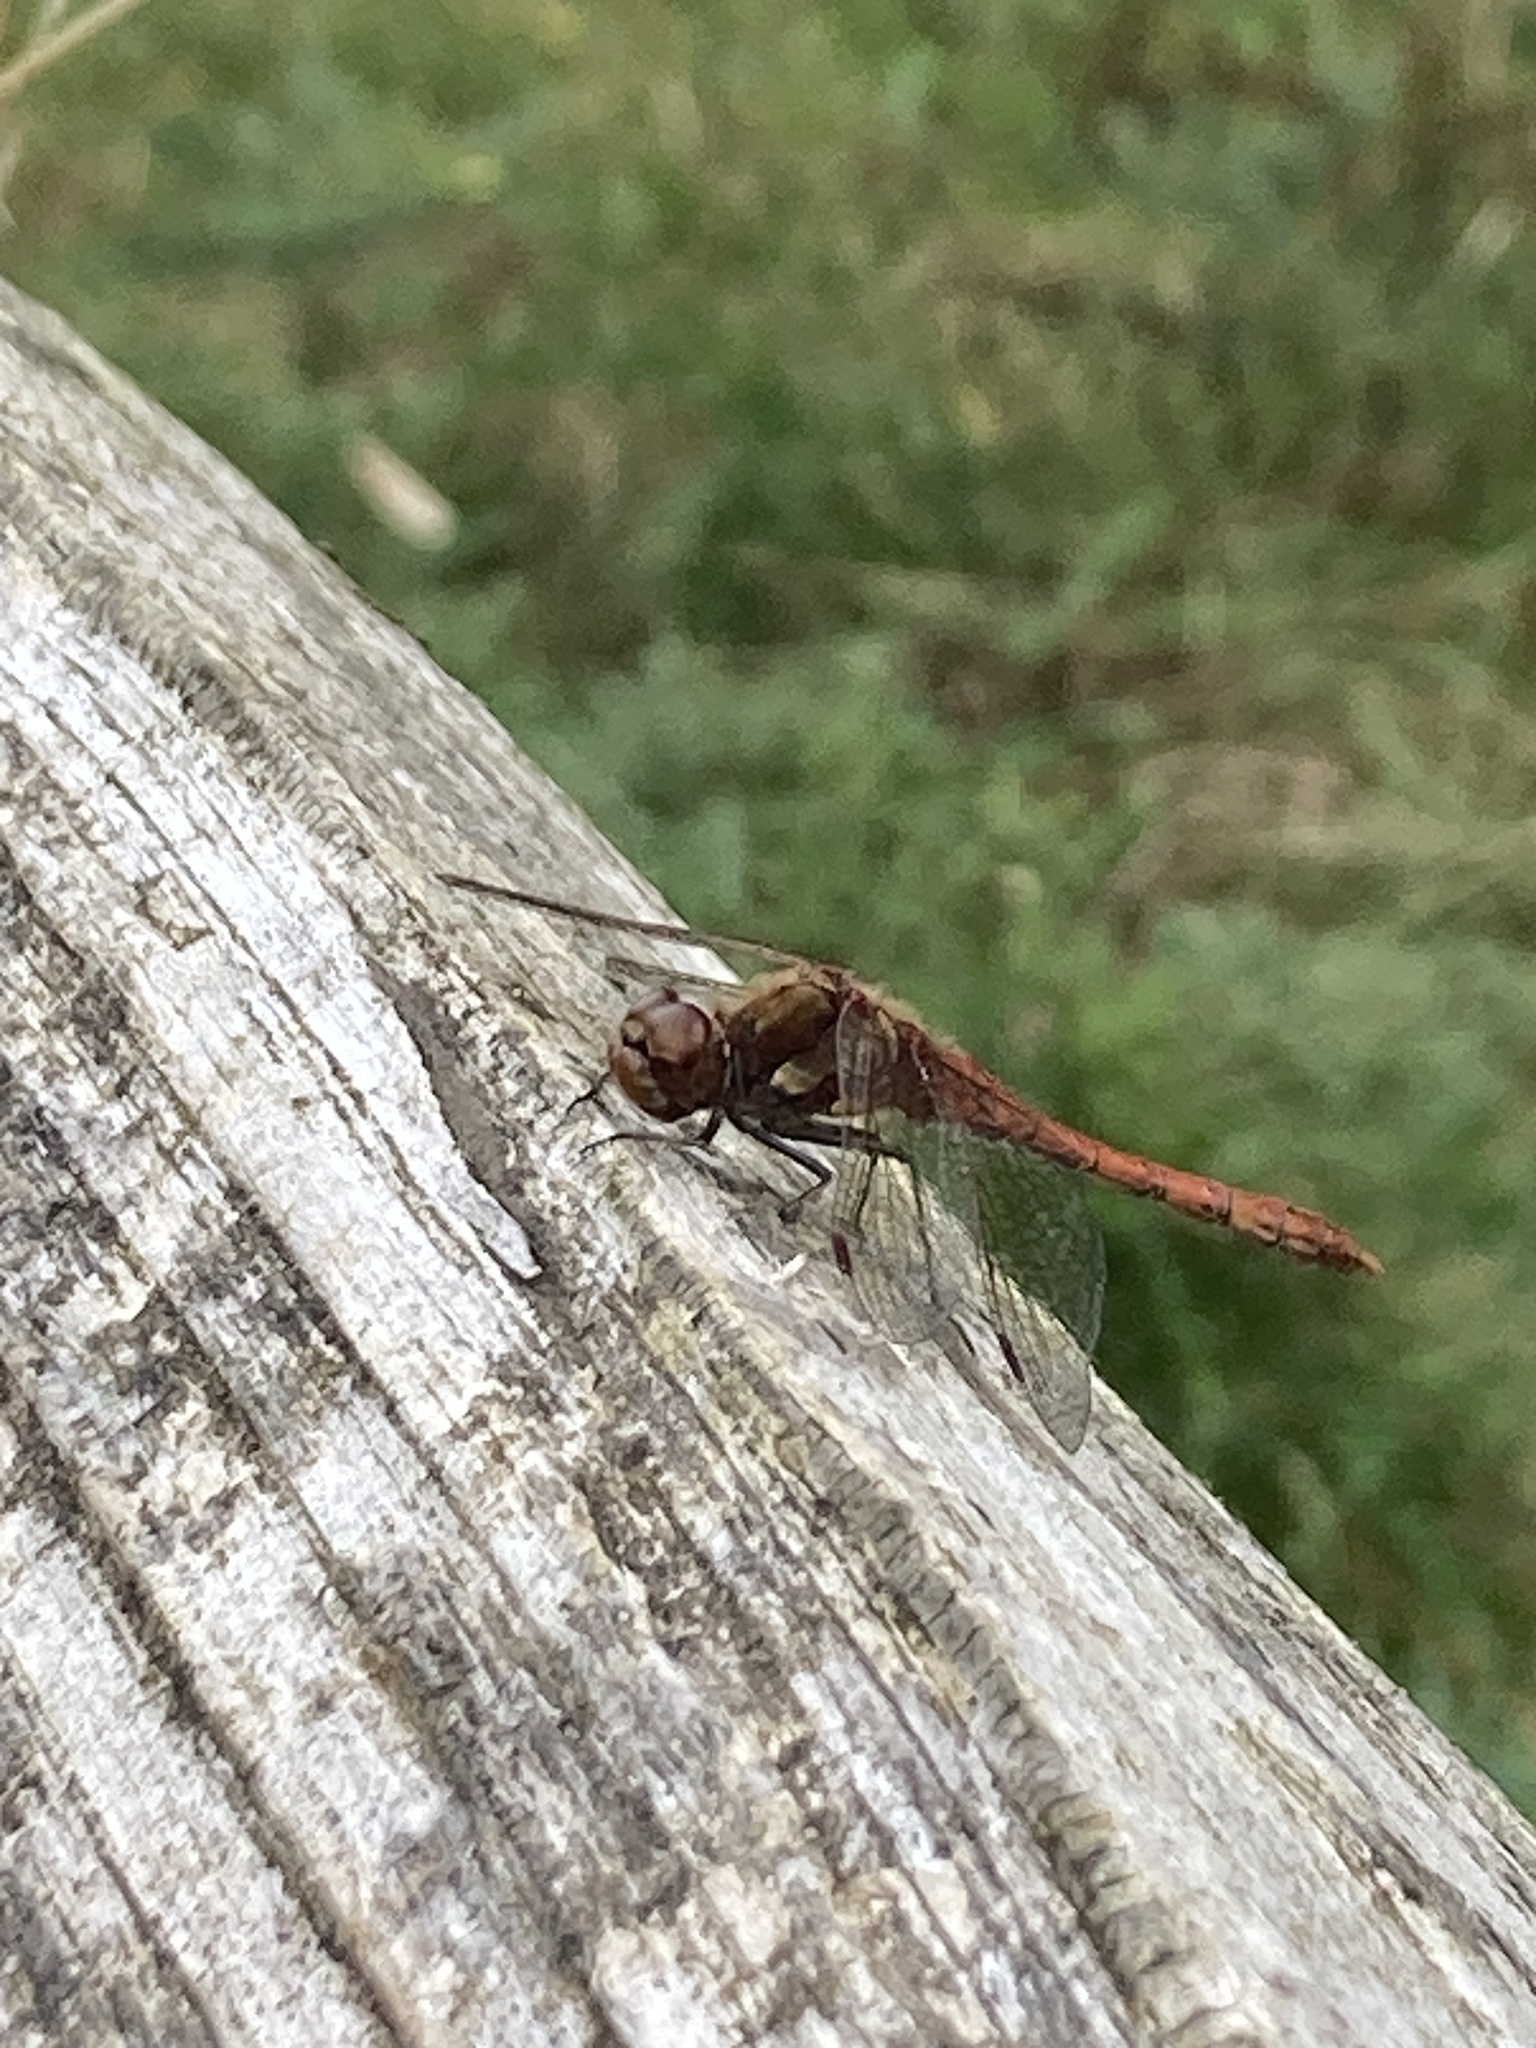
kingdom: Animalia
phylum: Arthropoda
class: Insecta
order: Odonata
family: Libellulidae
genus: Sympetrum
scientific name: Sympetrum striolatum
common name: Common darter
